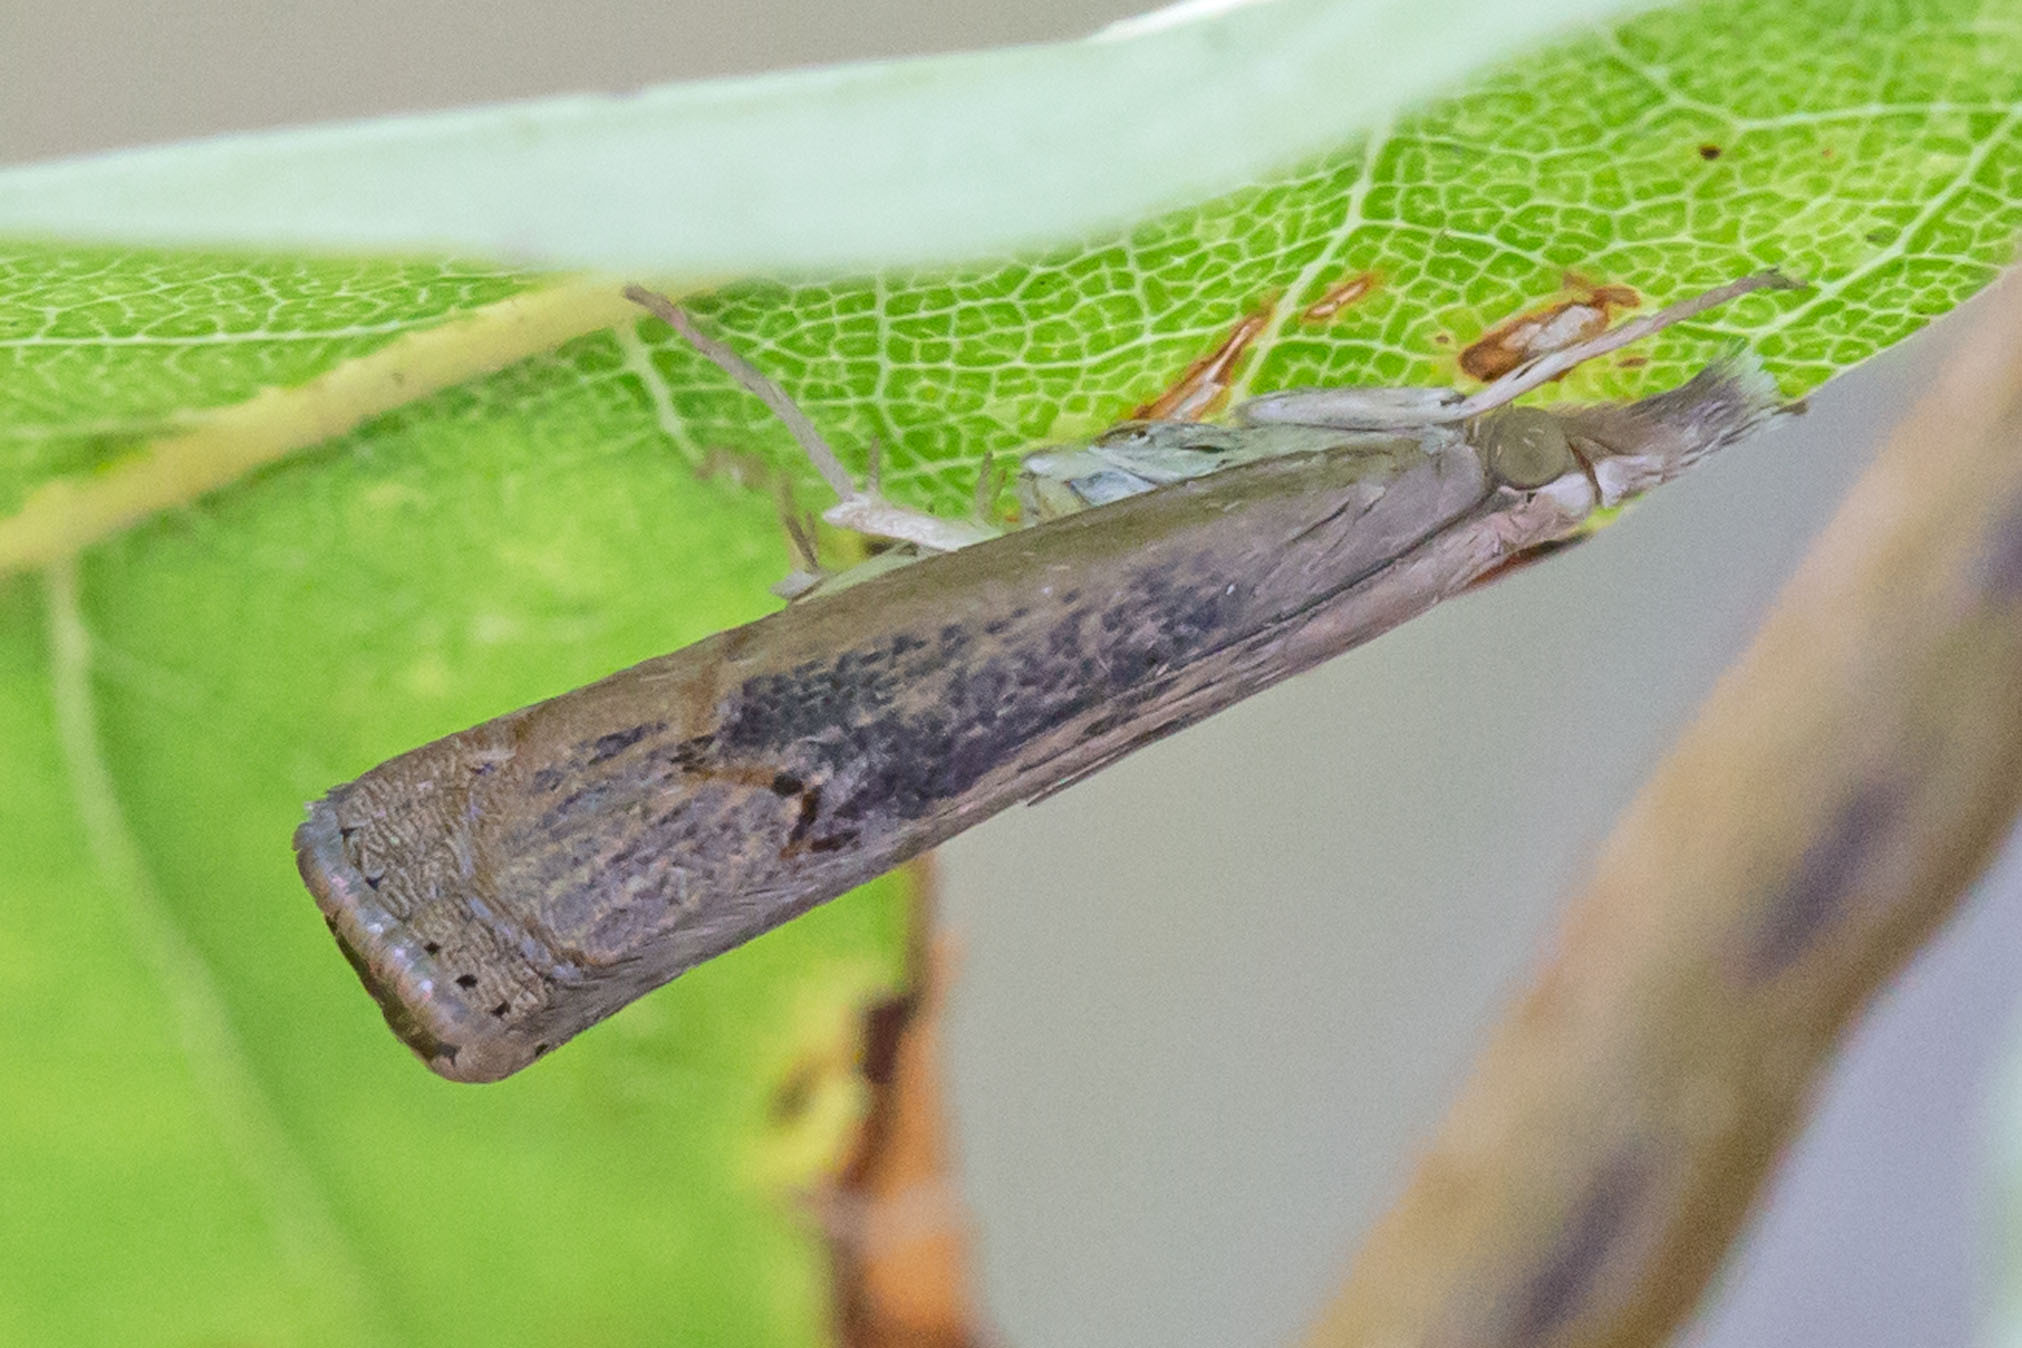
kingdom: Animalia
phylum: Arthropoda
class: Insecta
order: Lepidoptera
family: Crambidae
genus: Parapediasia
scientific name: Parapediasia teterellus
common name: Bluegrass webworm moth
